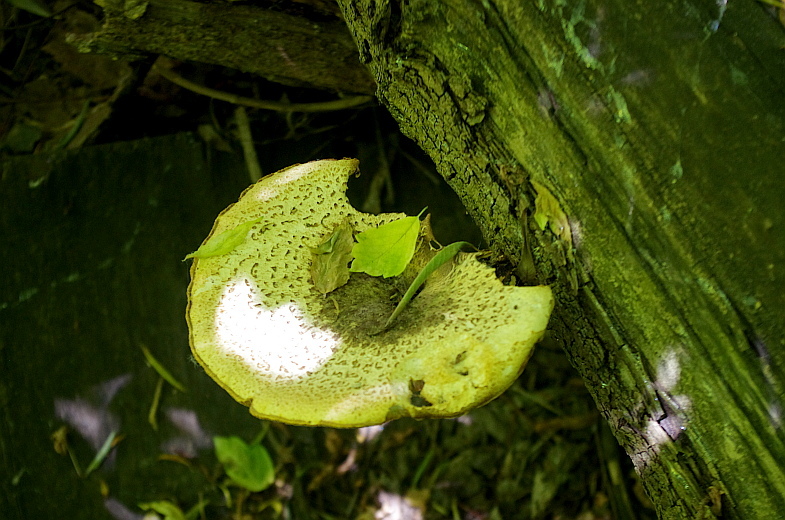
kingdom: Fungi
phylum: Basidiomycota
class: Agaricomycetes
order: Polyporales
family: Polyporaceae
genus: Cerioporus
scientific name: Cerioporus squamosus
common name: Dryad's saddle
